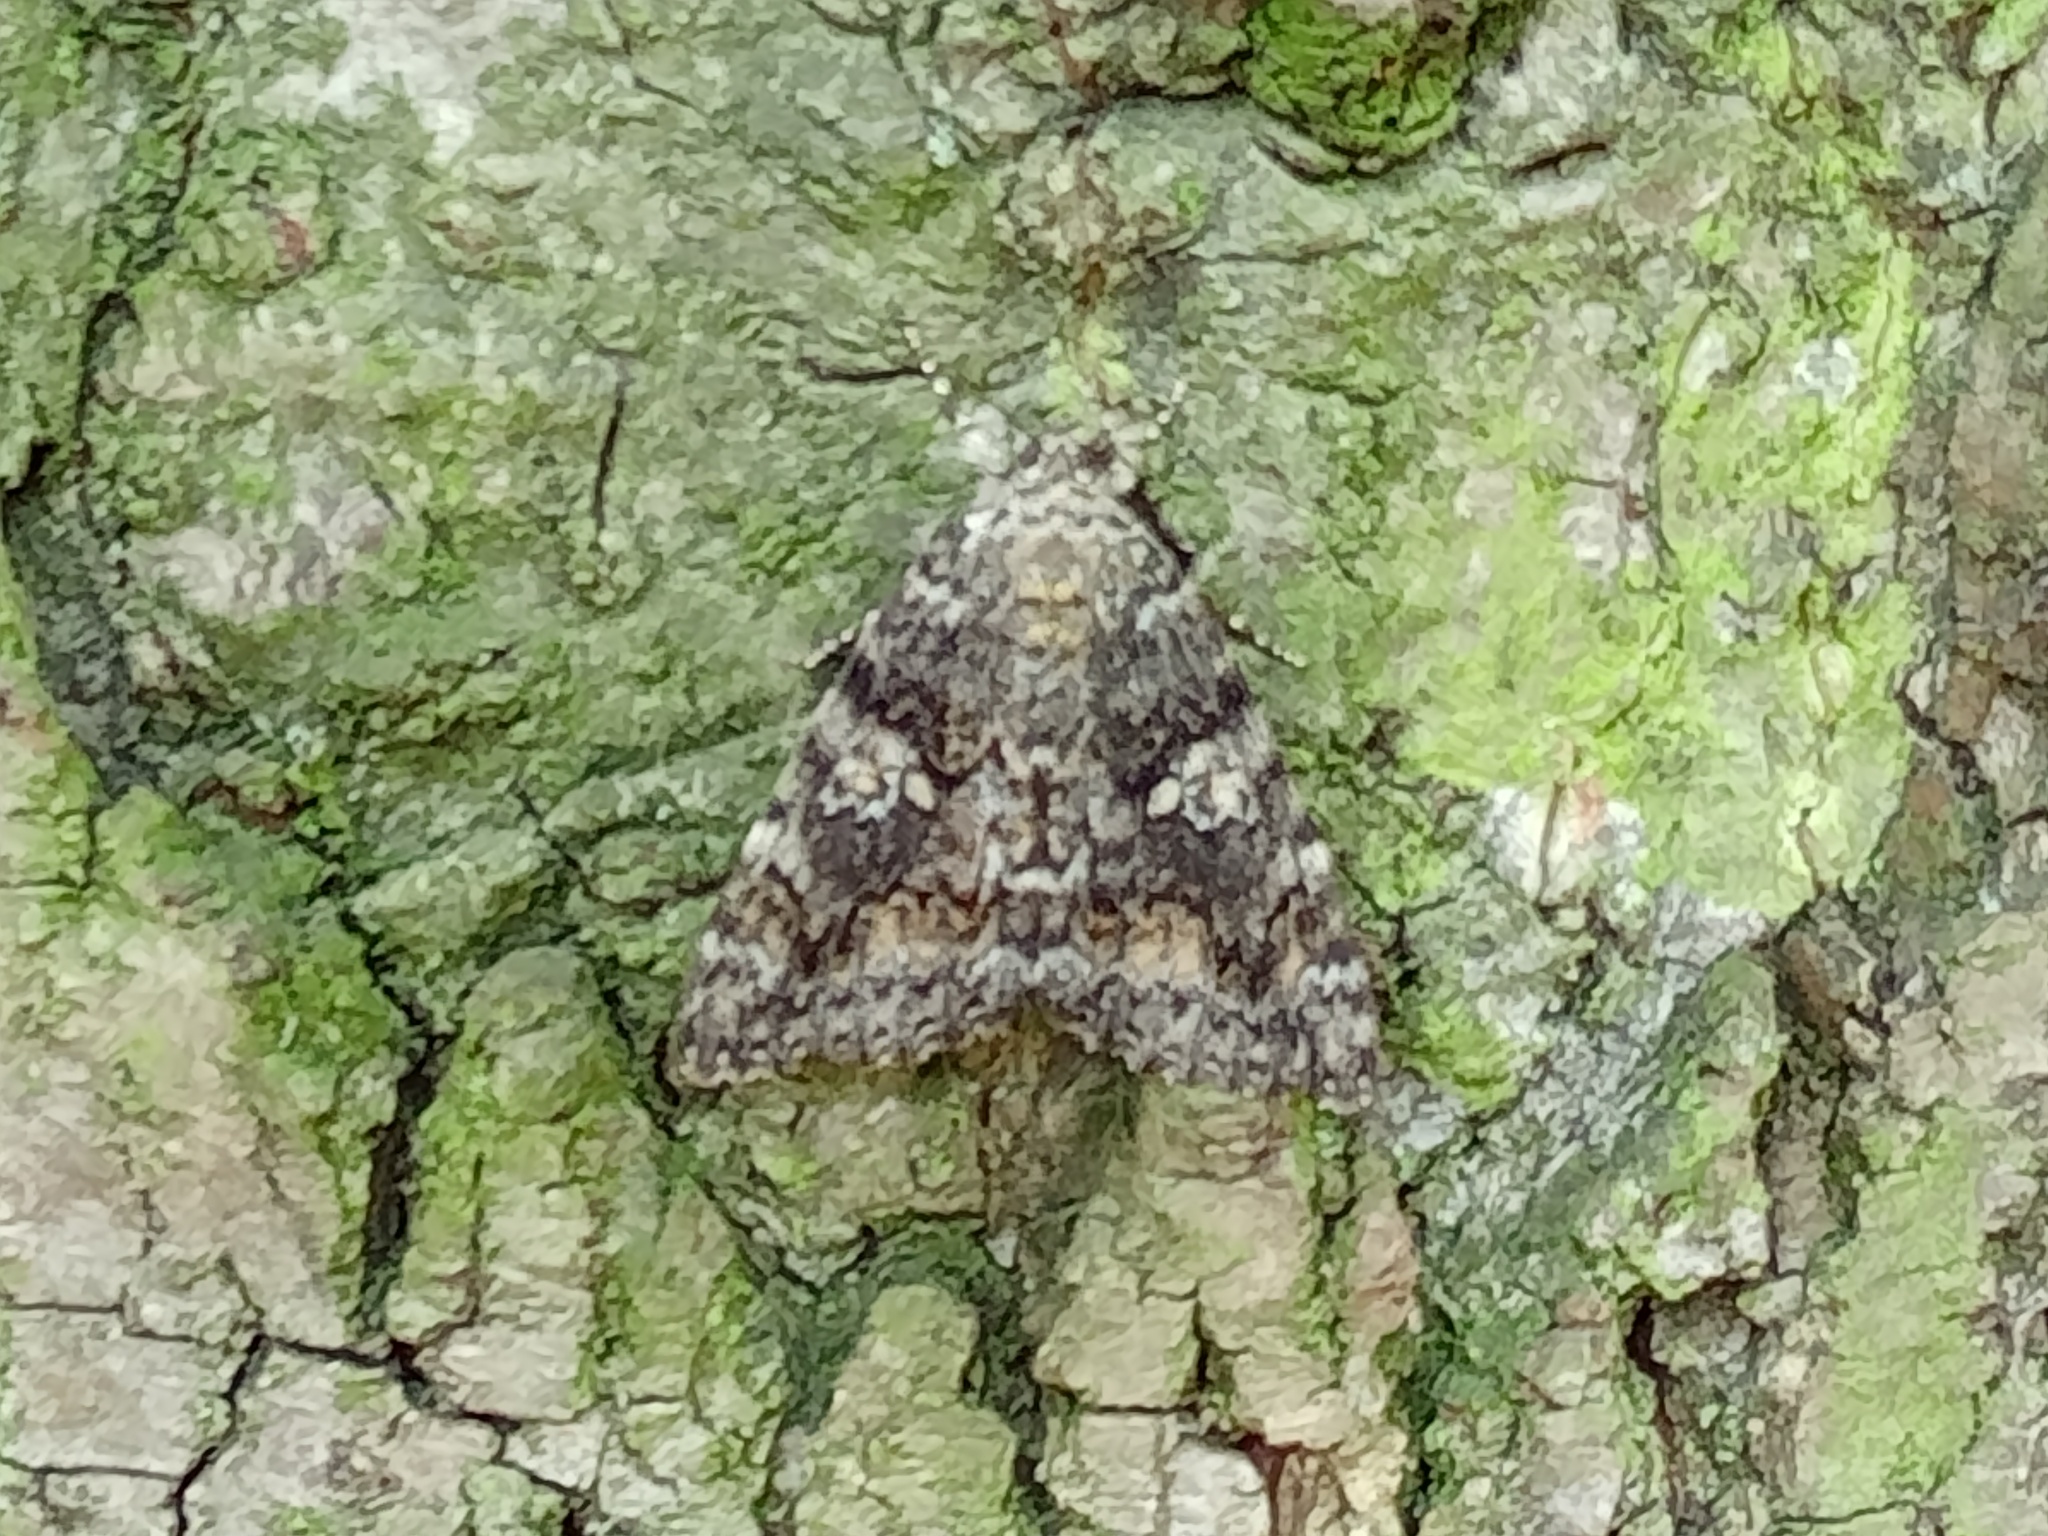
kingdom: Animalia
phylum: Arthropoda
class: Insecta
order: Lepidoptera
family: Erebidae
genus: Catocala
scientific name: Catocala sponsa
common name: Dark crimson underwing
